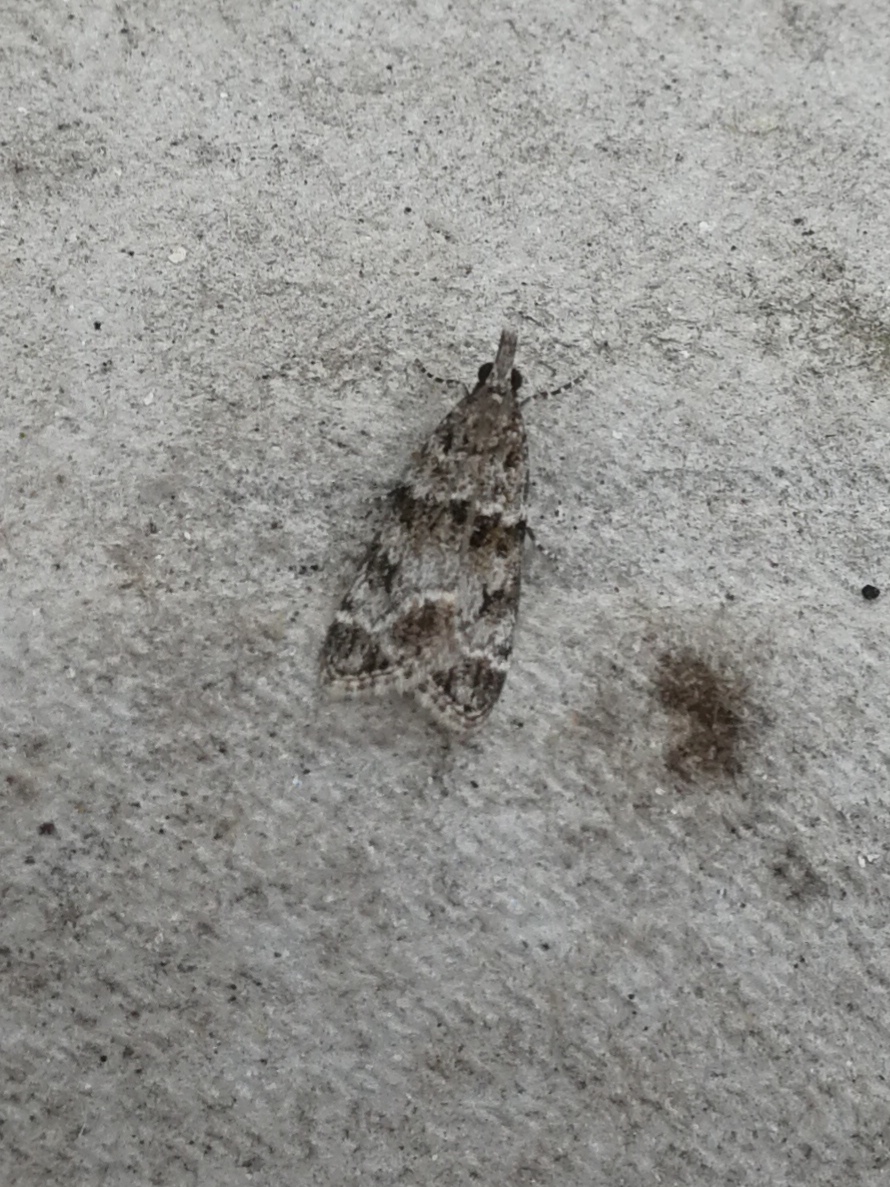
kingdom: Animalia
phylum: Arthropoda
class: Insecta
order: Lepidoptera
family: Crambidae
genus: Eudonia
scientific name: Eudonia mercurella
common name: Small grey
